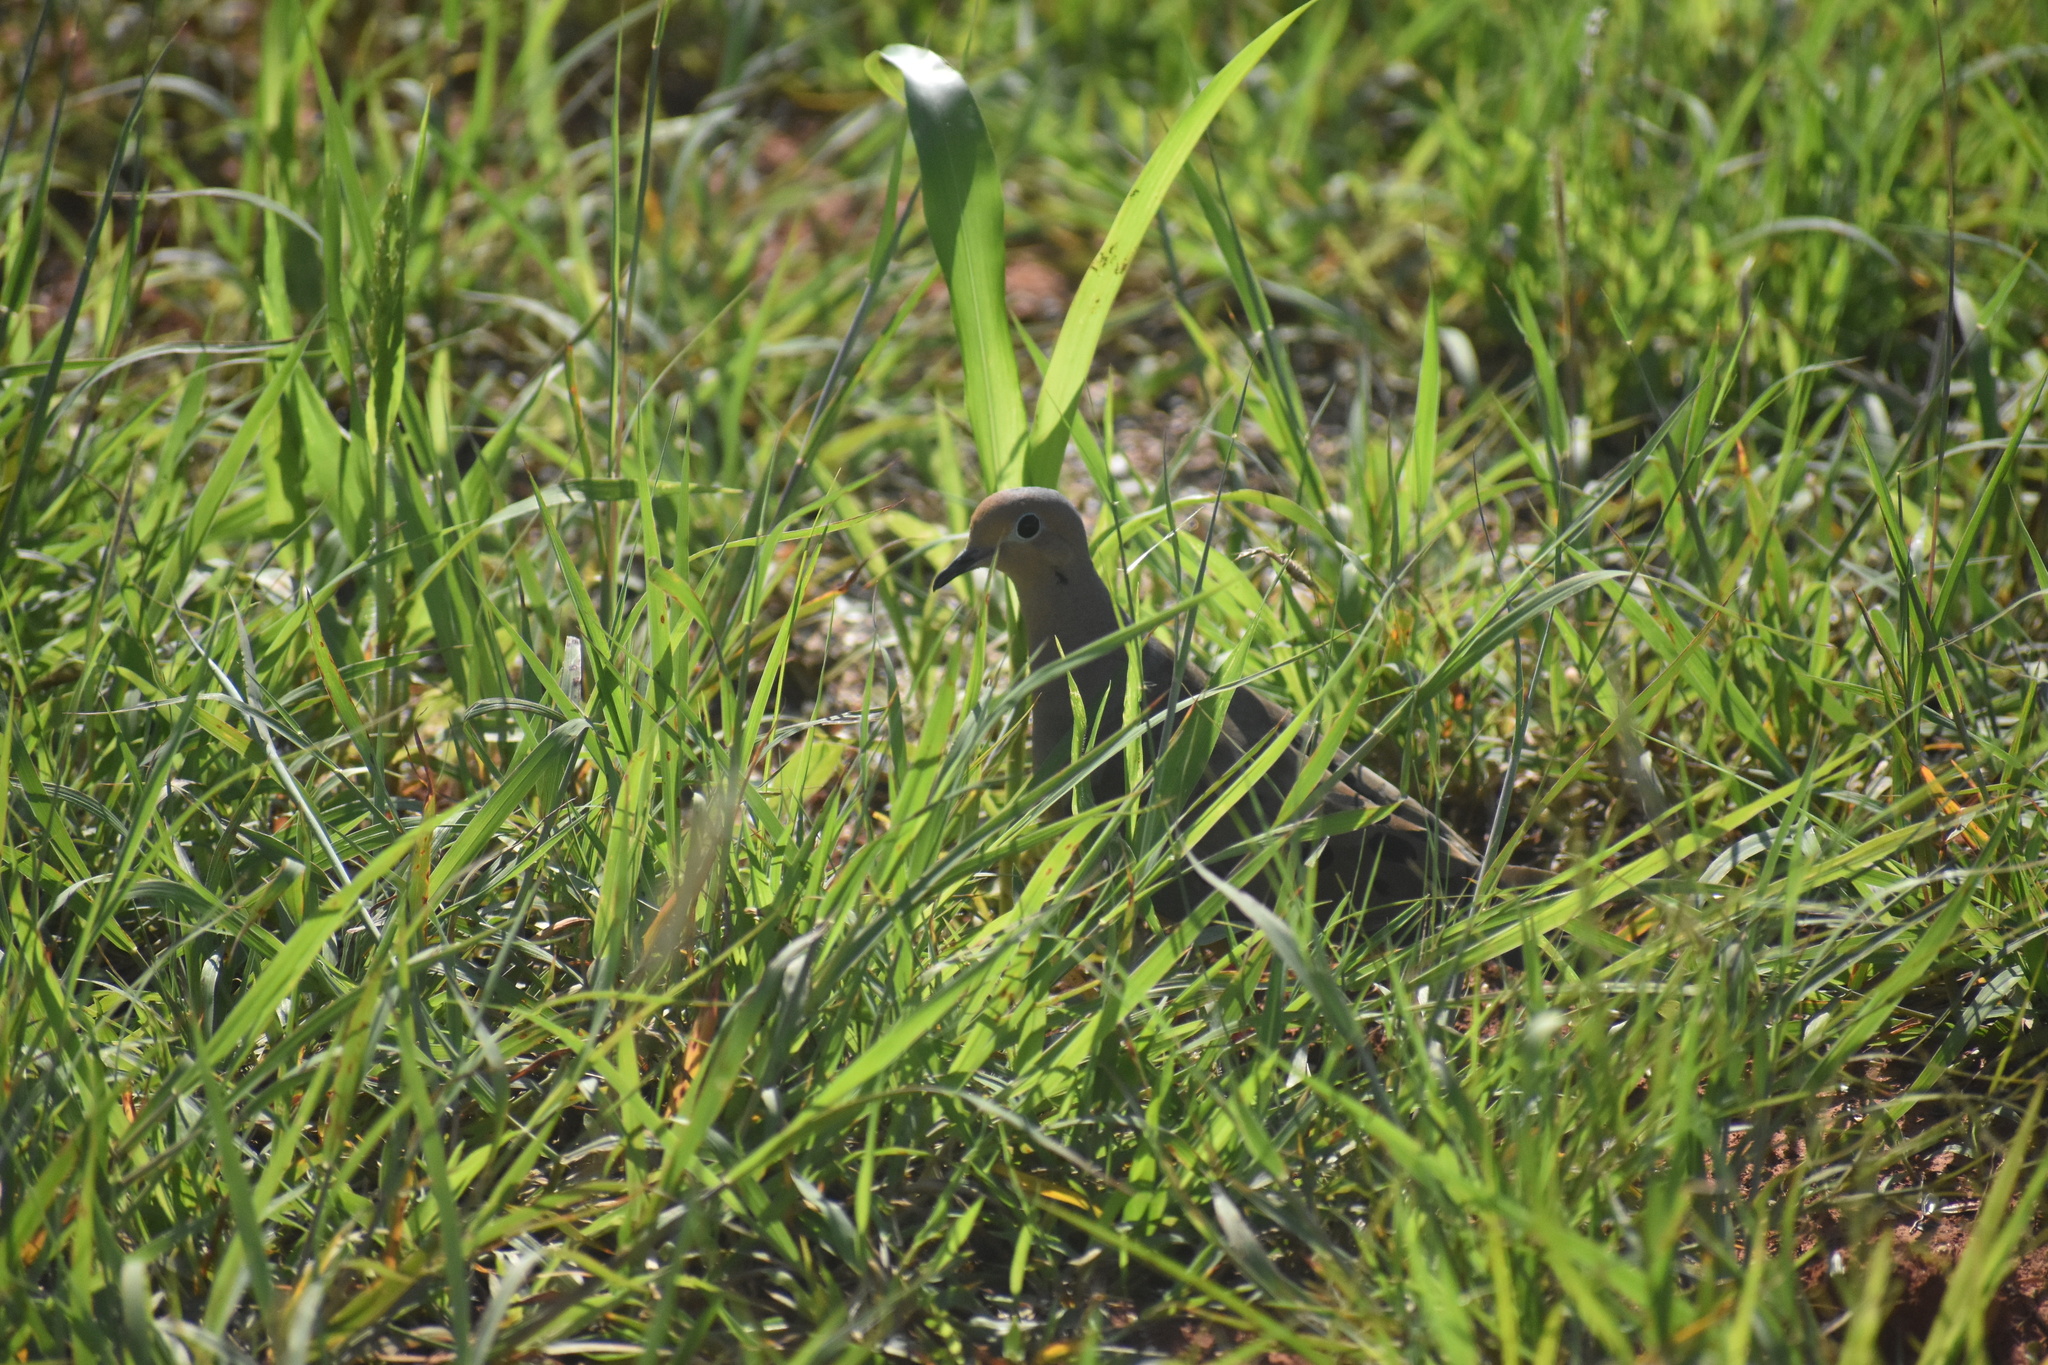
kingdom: Animalia
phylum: Chordata
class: Aves
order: Columbiformes
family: Columbidae
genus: Zenaida
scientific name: Zenaida macroura
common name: Mourning dove
